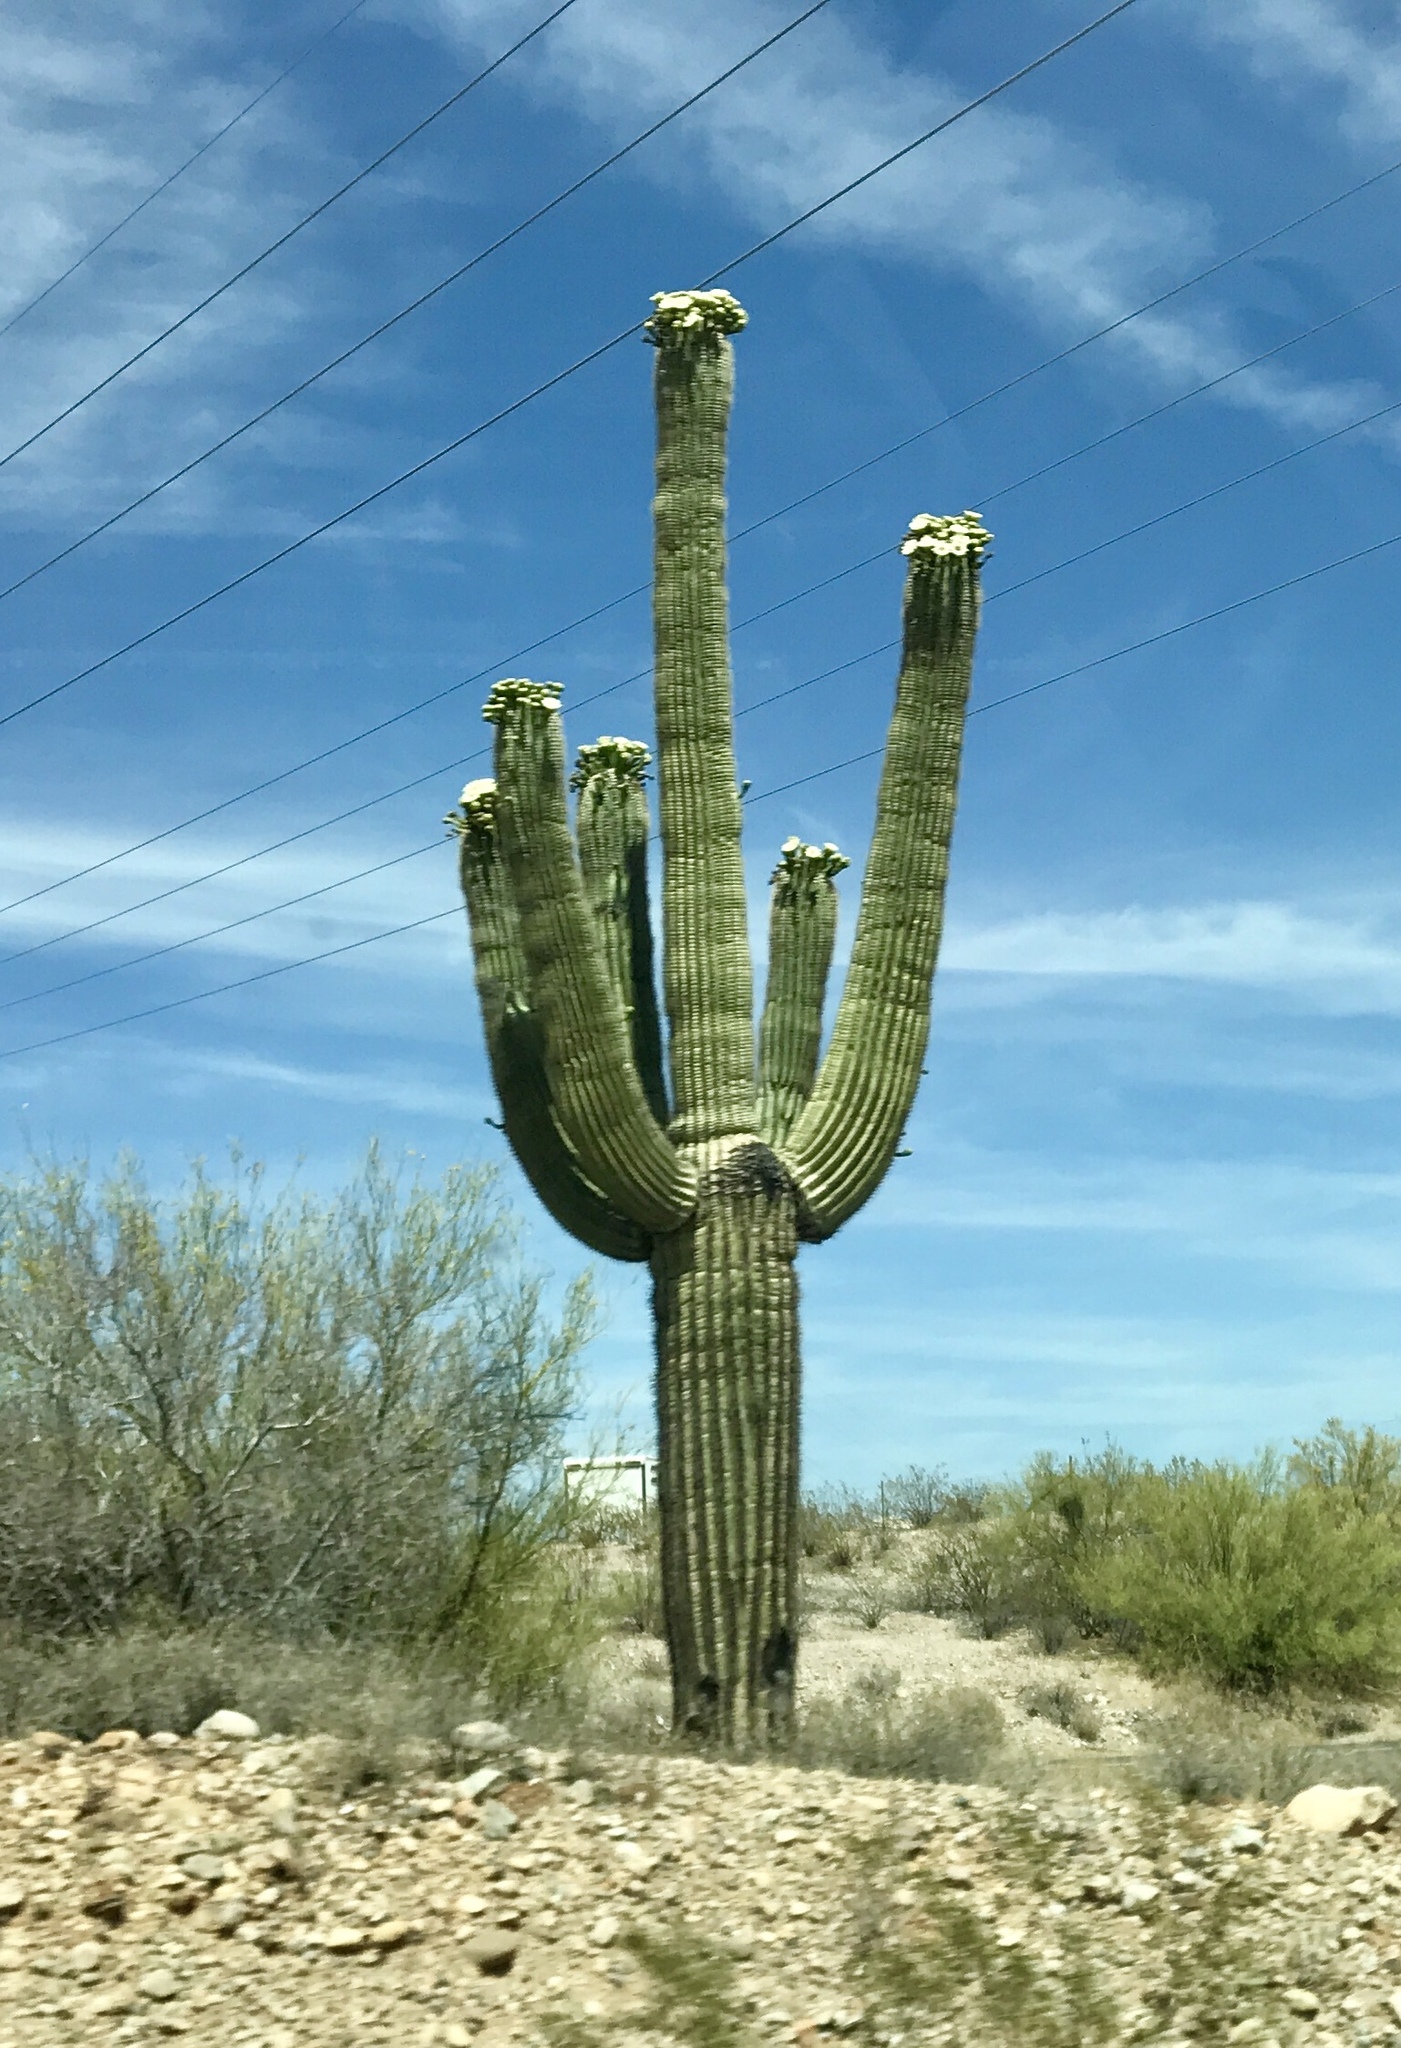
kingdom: Plantae
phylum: Tracheophyta
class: Magnoliopsida
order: Caryophyllales
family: Cactaceae
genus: Carnegiea
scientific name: Carnegiea gigantea
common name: Saguaro
